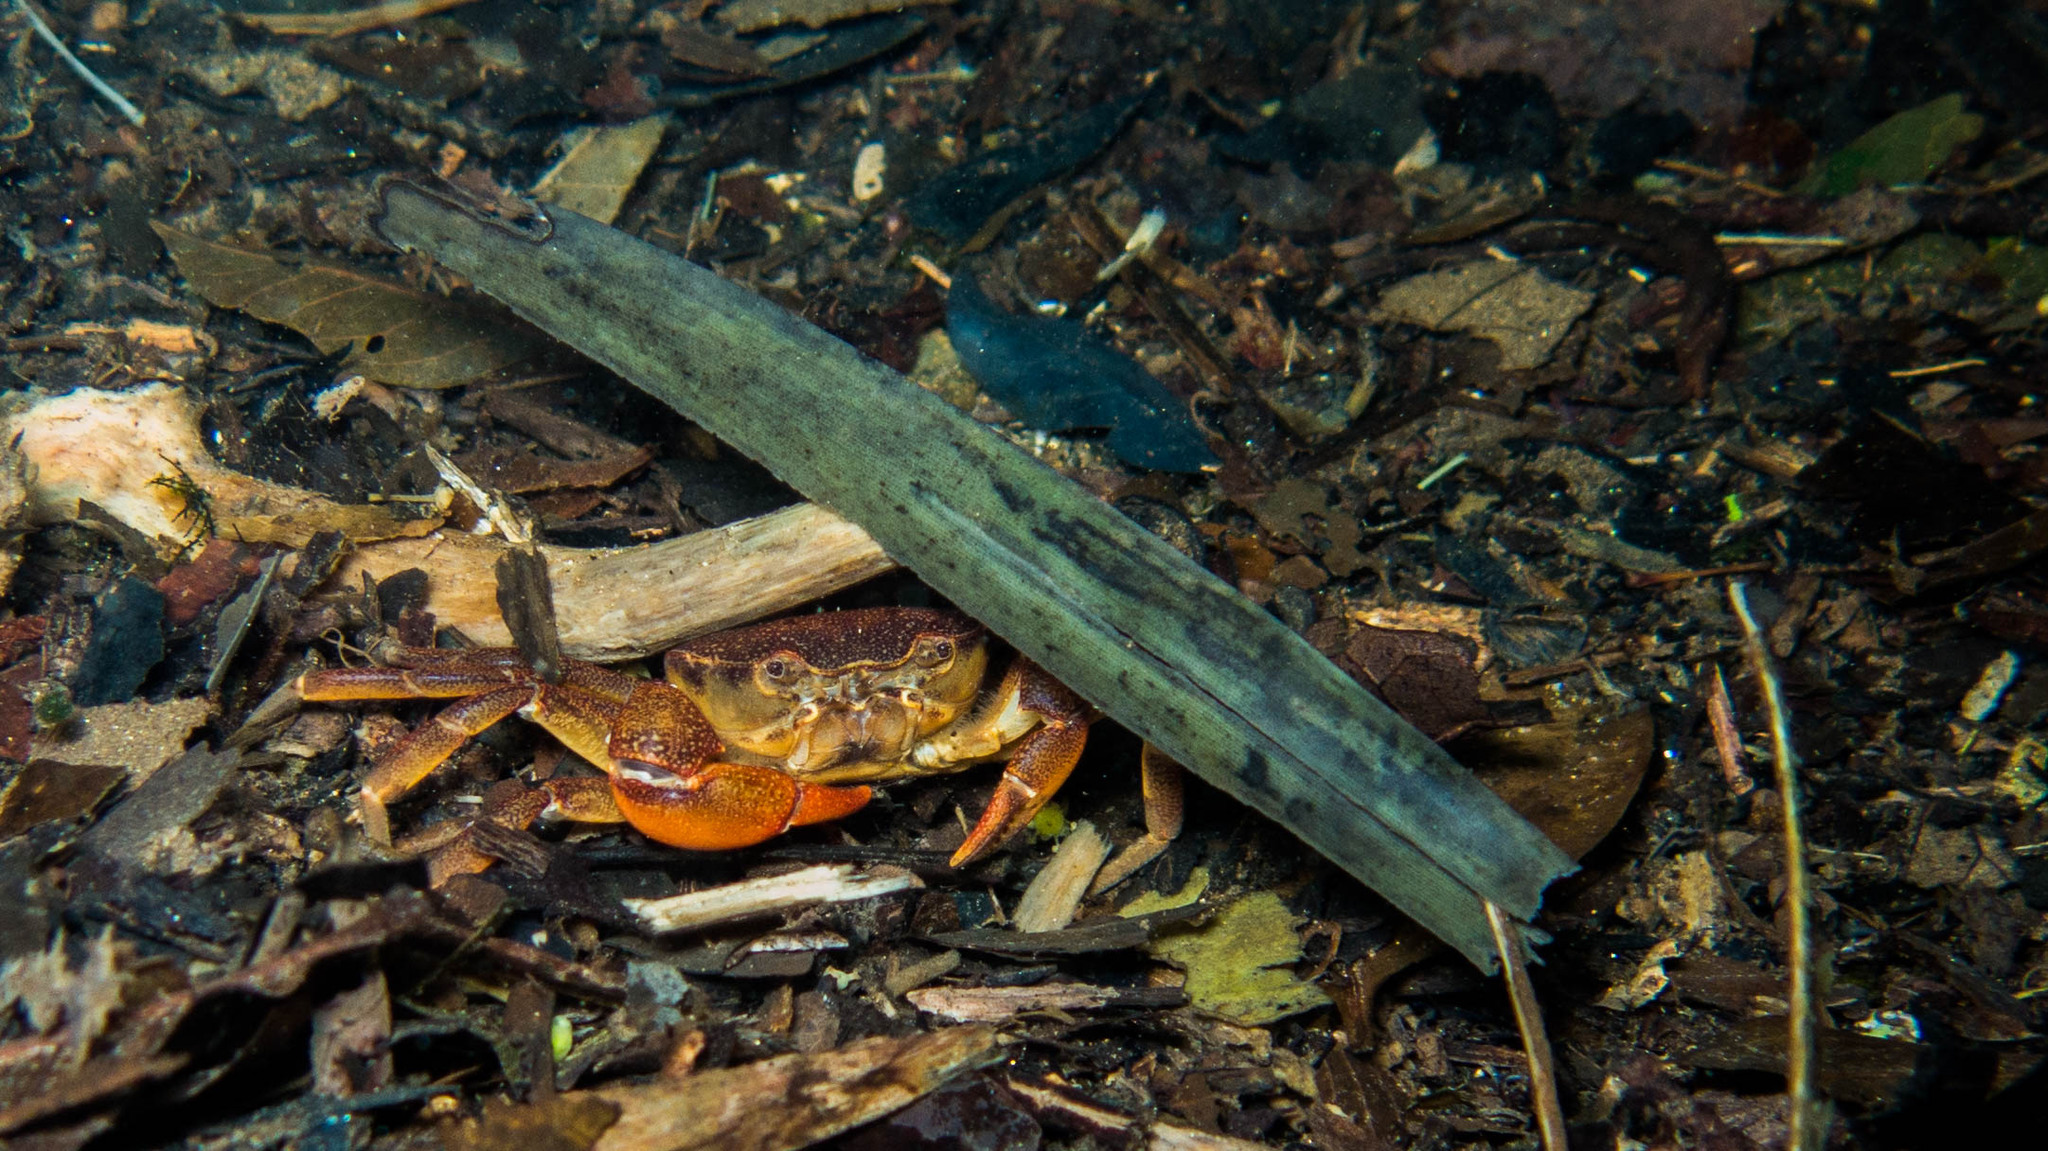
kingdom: Animalia
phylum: Arthropoda
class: Malacostraca
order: Decapoda
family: Trichodactylidae
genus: Trichodactylus
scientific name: Trichodactylus fluviatilis
